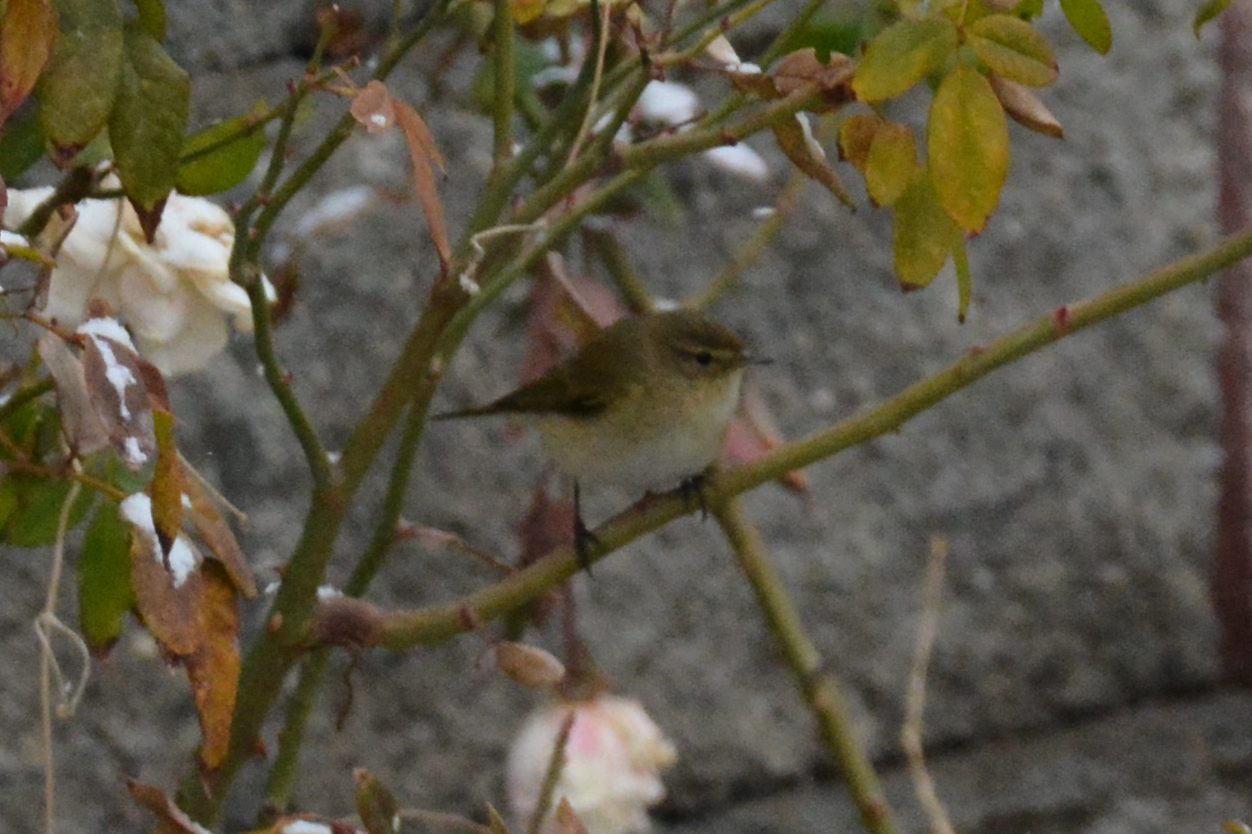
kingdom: Animalia
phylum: Chordata
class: Aves
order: Passeriformes
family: Phylloscopidae
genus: Phylloscopus
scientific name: Phylloscopus collybita
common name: Common chiffchaff
